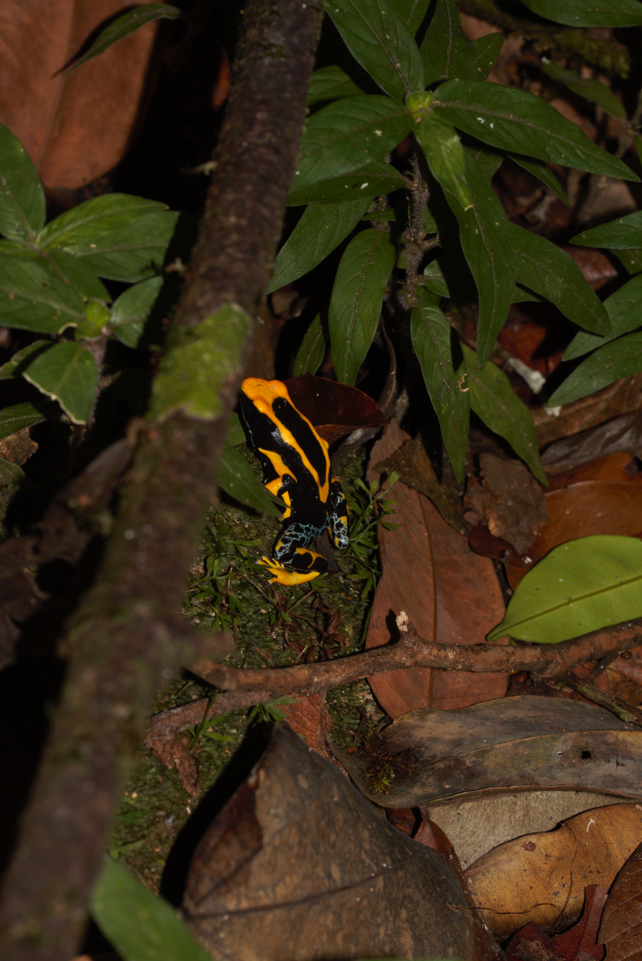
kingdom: Animalia
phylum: Chordata
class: Amphibia
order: Anura
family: Dendrobatidae
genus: Dendrobates
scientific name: Dendrobates tinctorius
